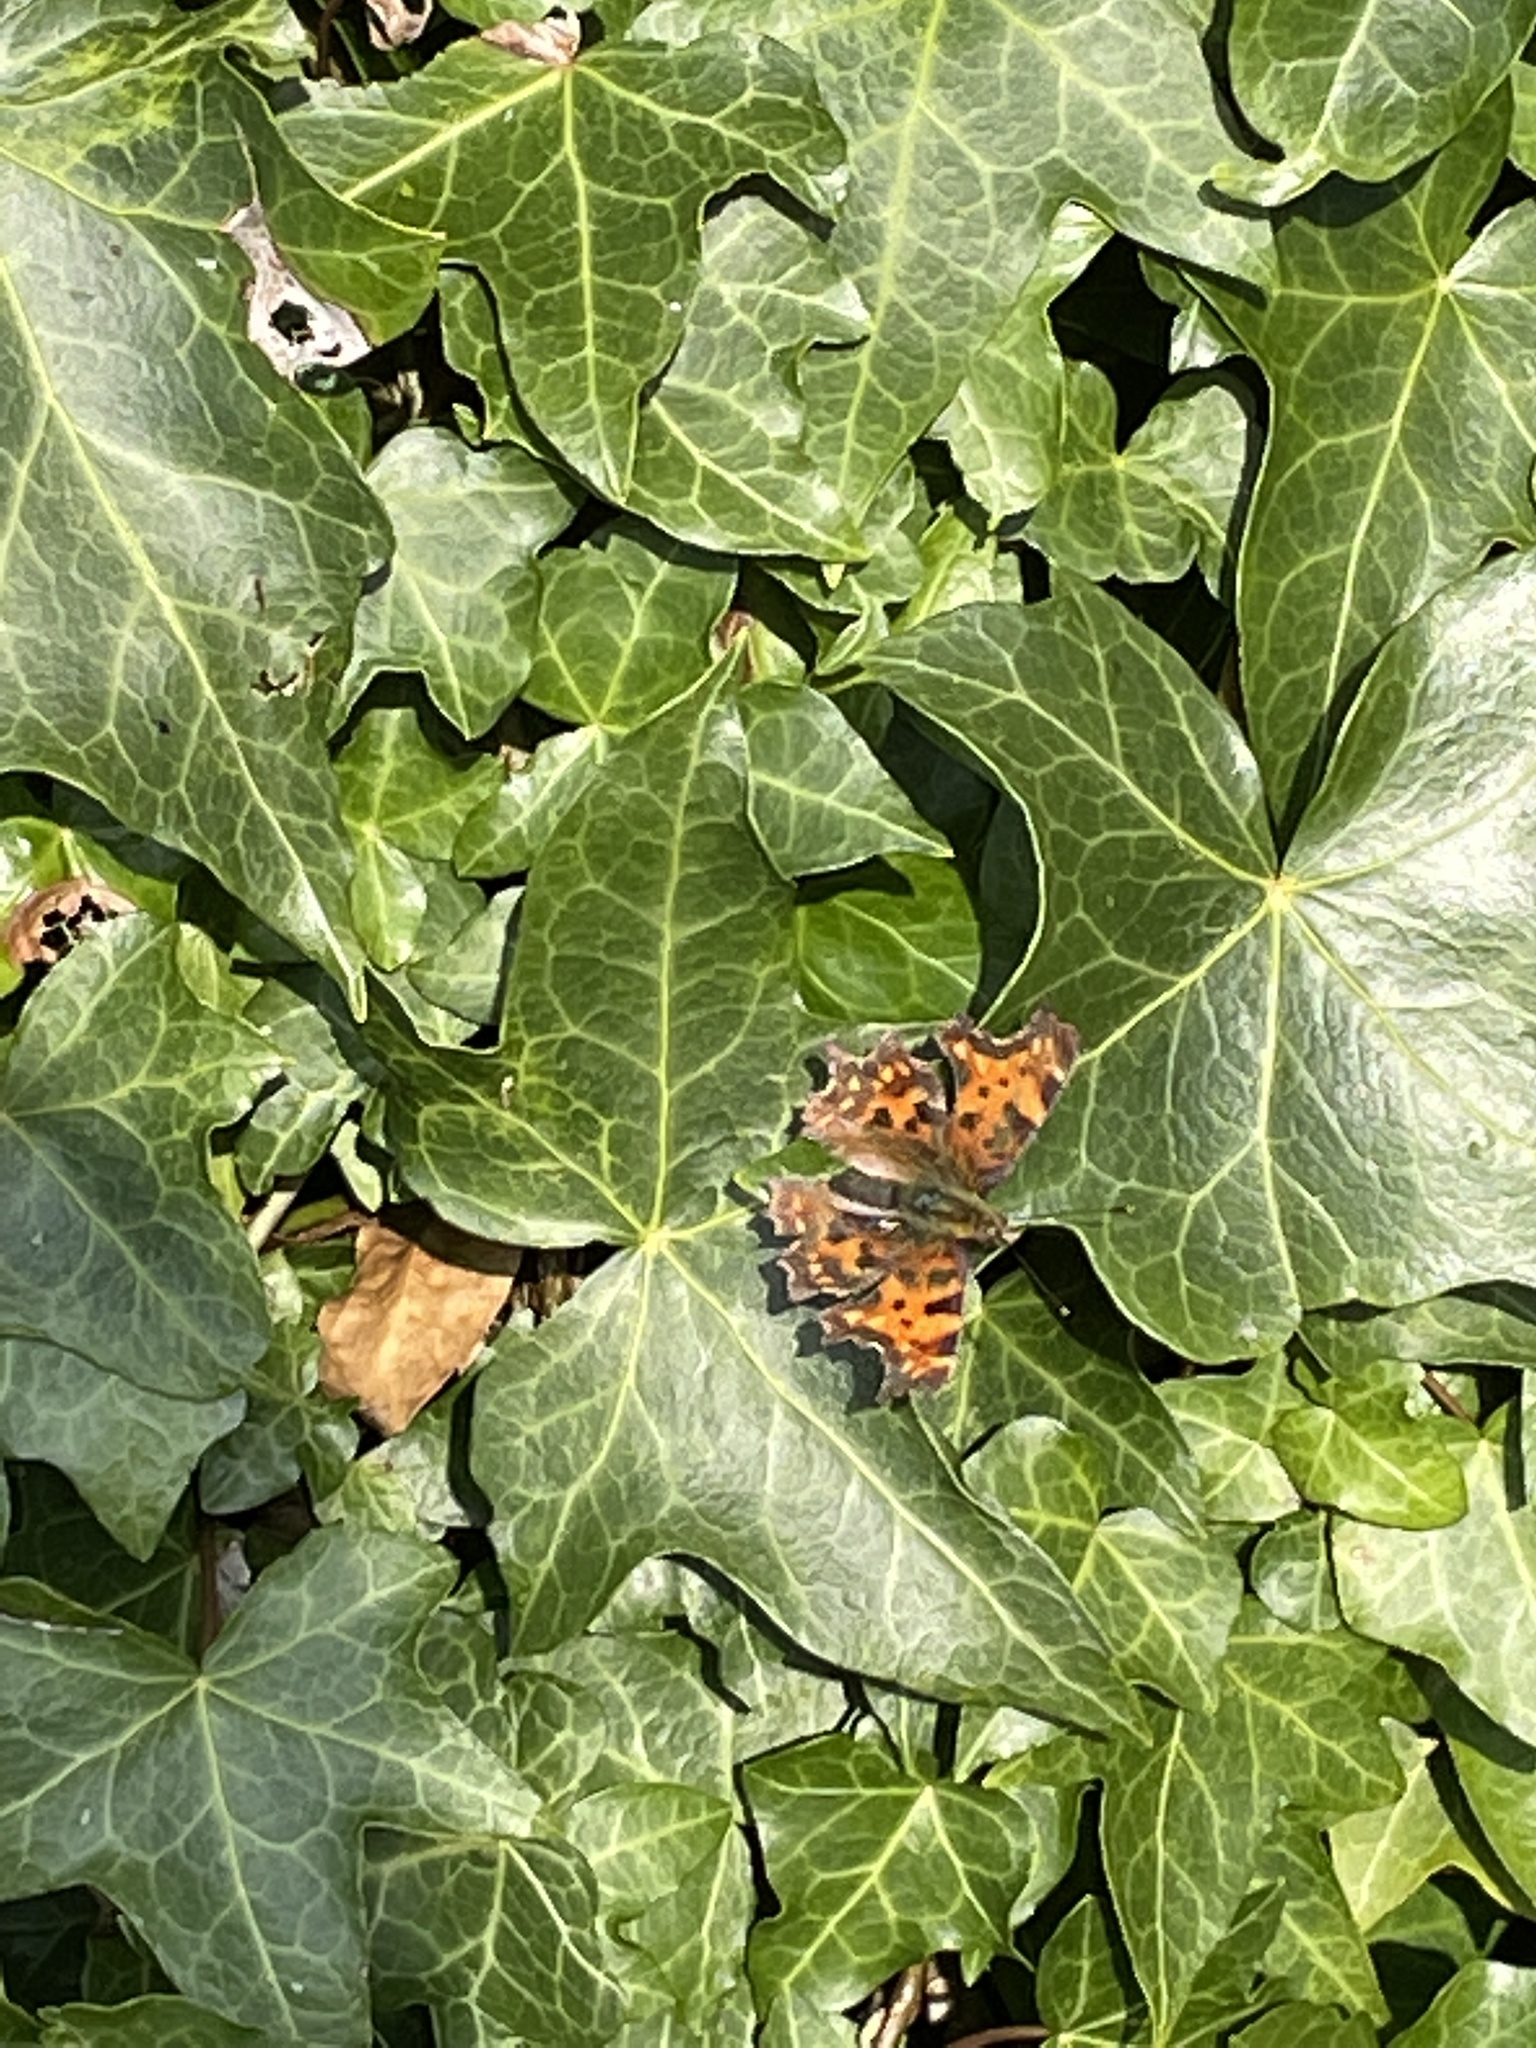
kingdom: Animalia
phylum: Arthropoda
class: Insecta
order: Lepidoptera
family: Nymphalidae
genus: Polygonia
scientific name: Polygonia c-album
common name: Comma
